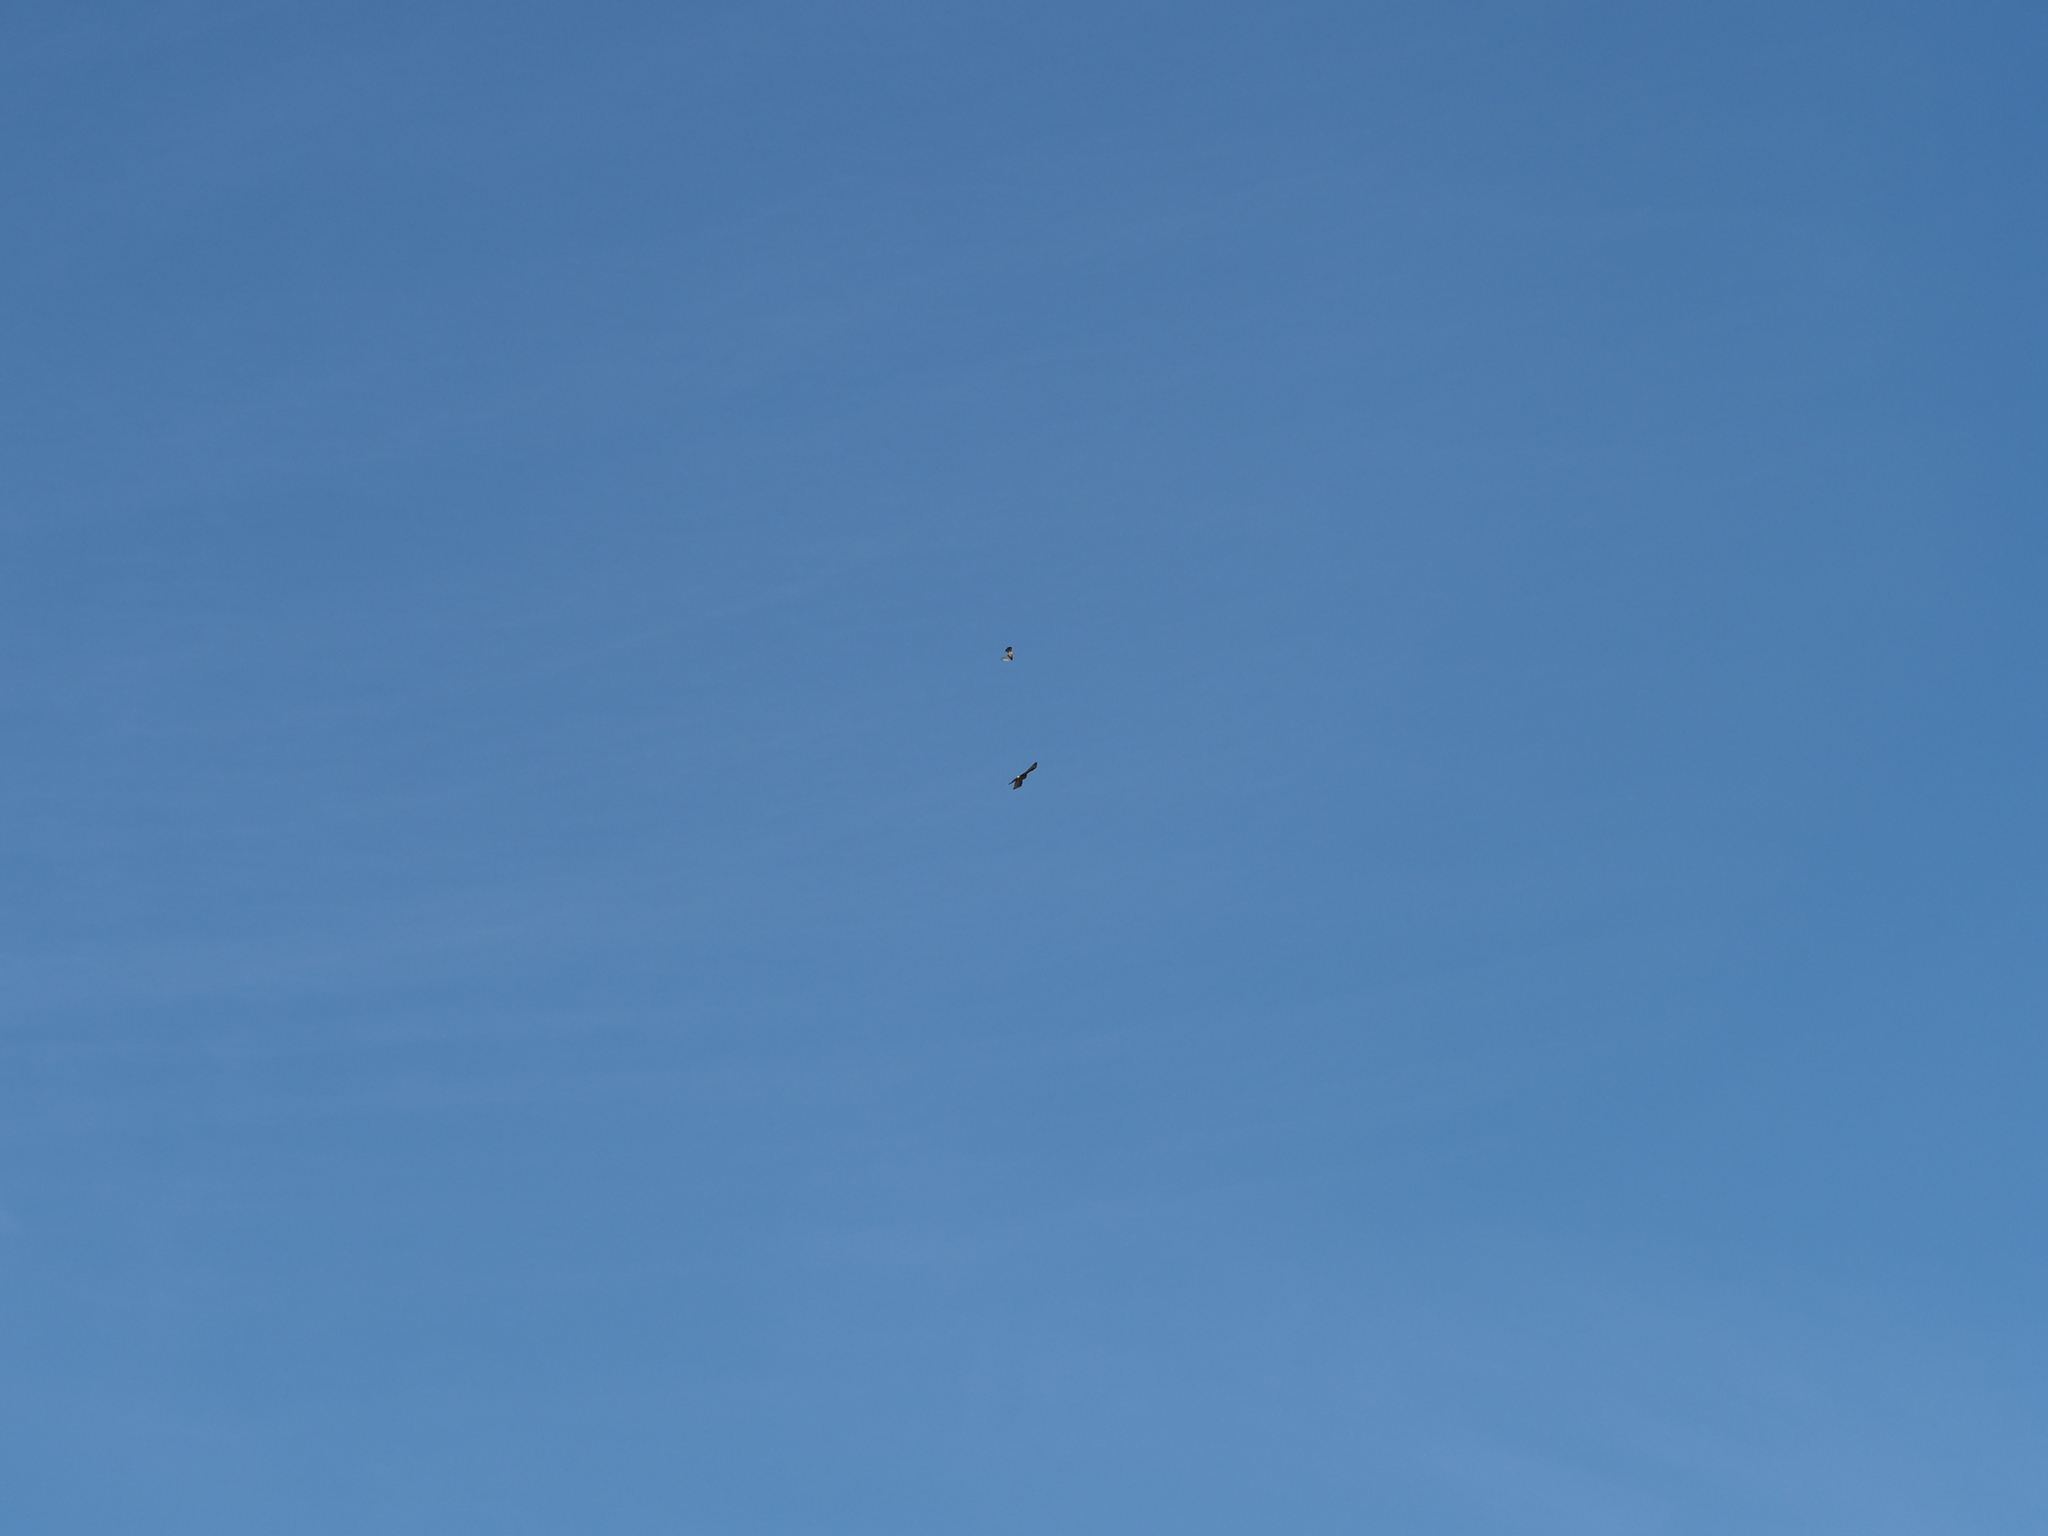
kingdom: Animalia
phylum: Chordata
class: Aves
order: Accipitriformes
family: Accipitridae
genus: Accipiter
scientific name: Accipiter cooperii
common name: Cooper's hawk
